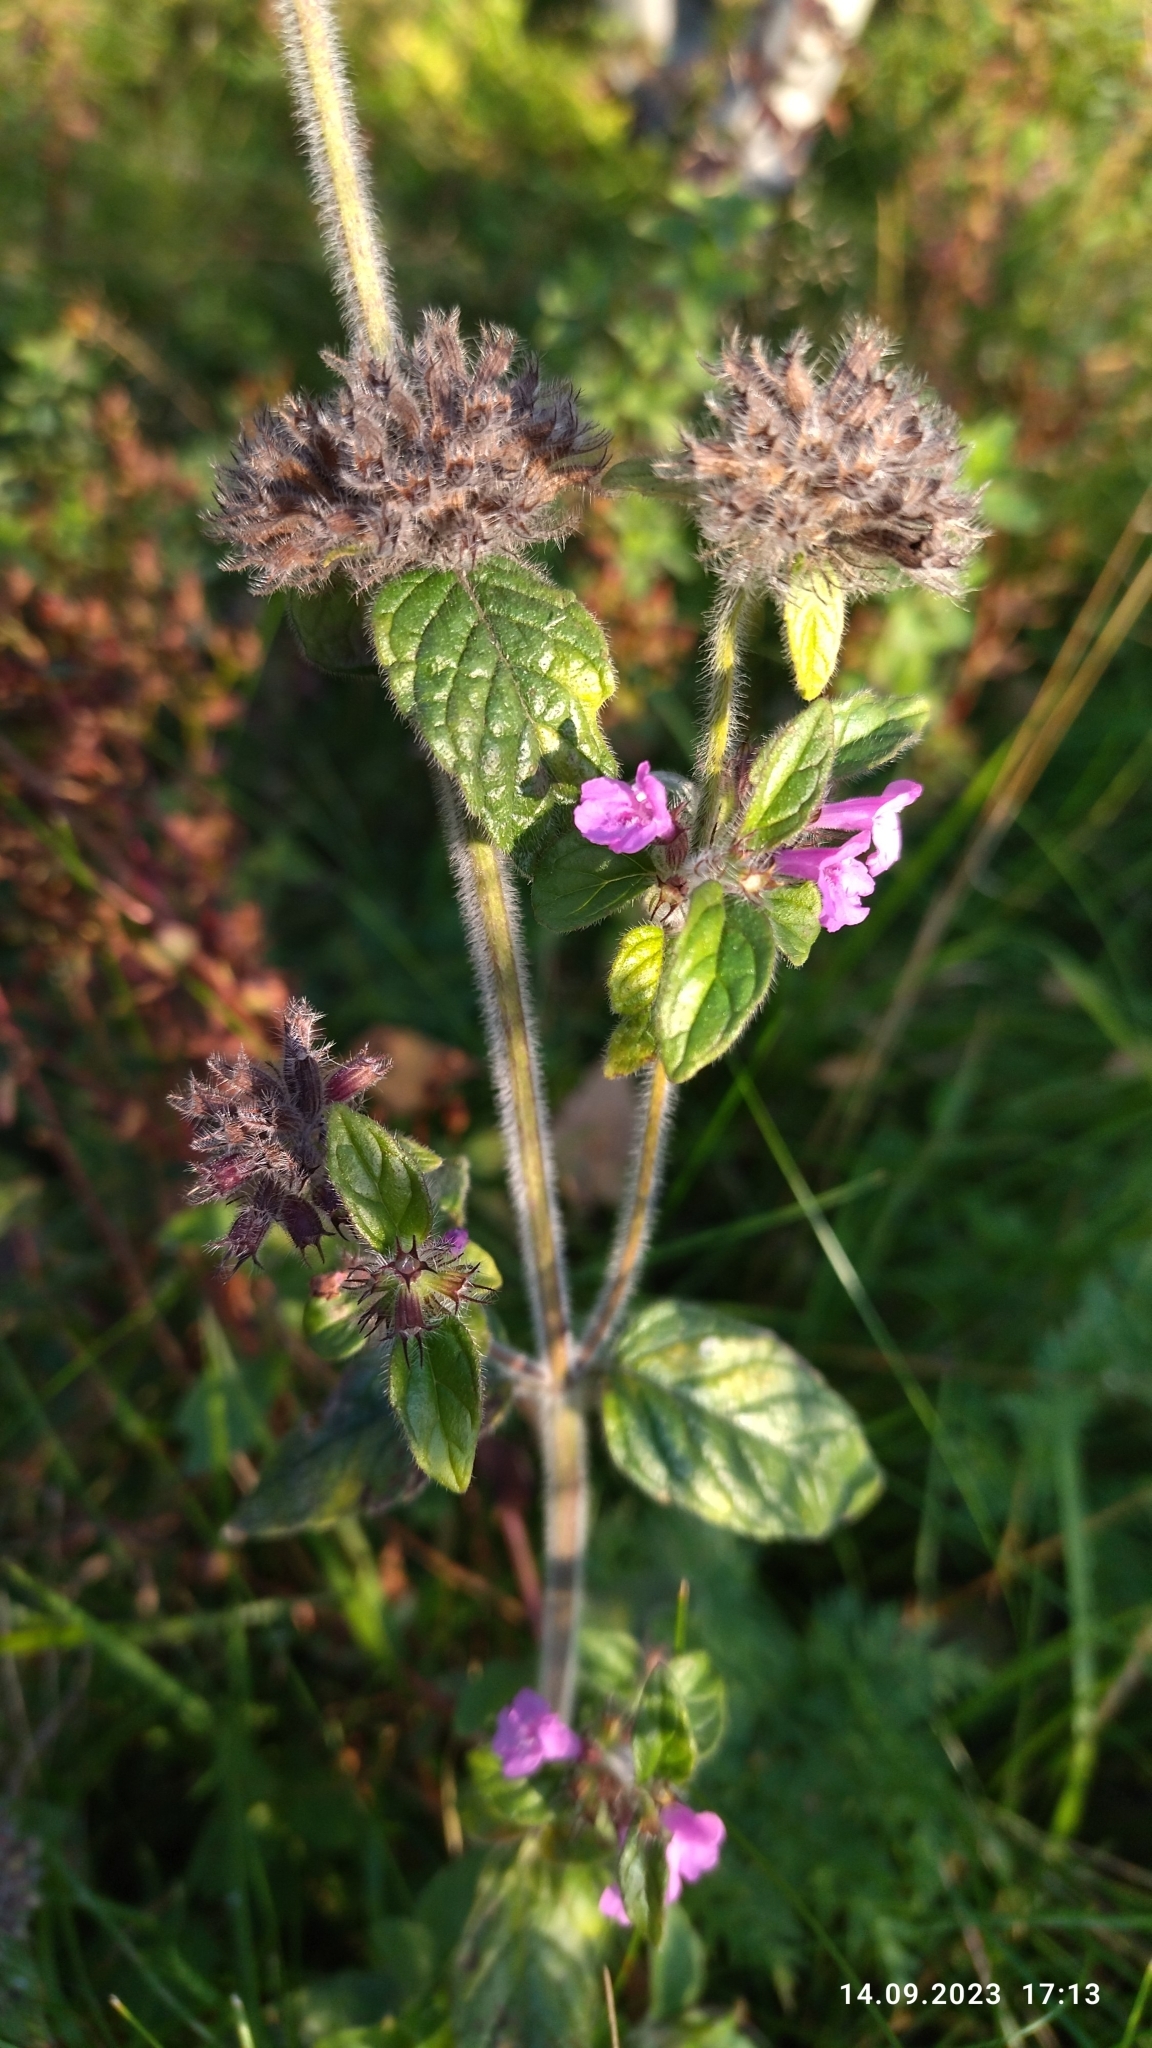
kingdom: Plantae
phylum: Tracheophyta
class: Magnoliopsida
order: Lamiales
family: Lamiaceae
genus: Clinopodium
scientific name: Clinopodium vulgare
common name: Wild basil
